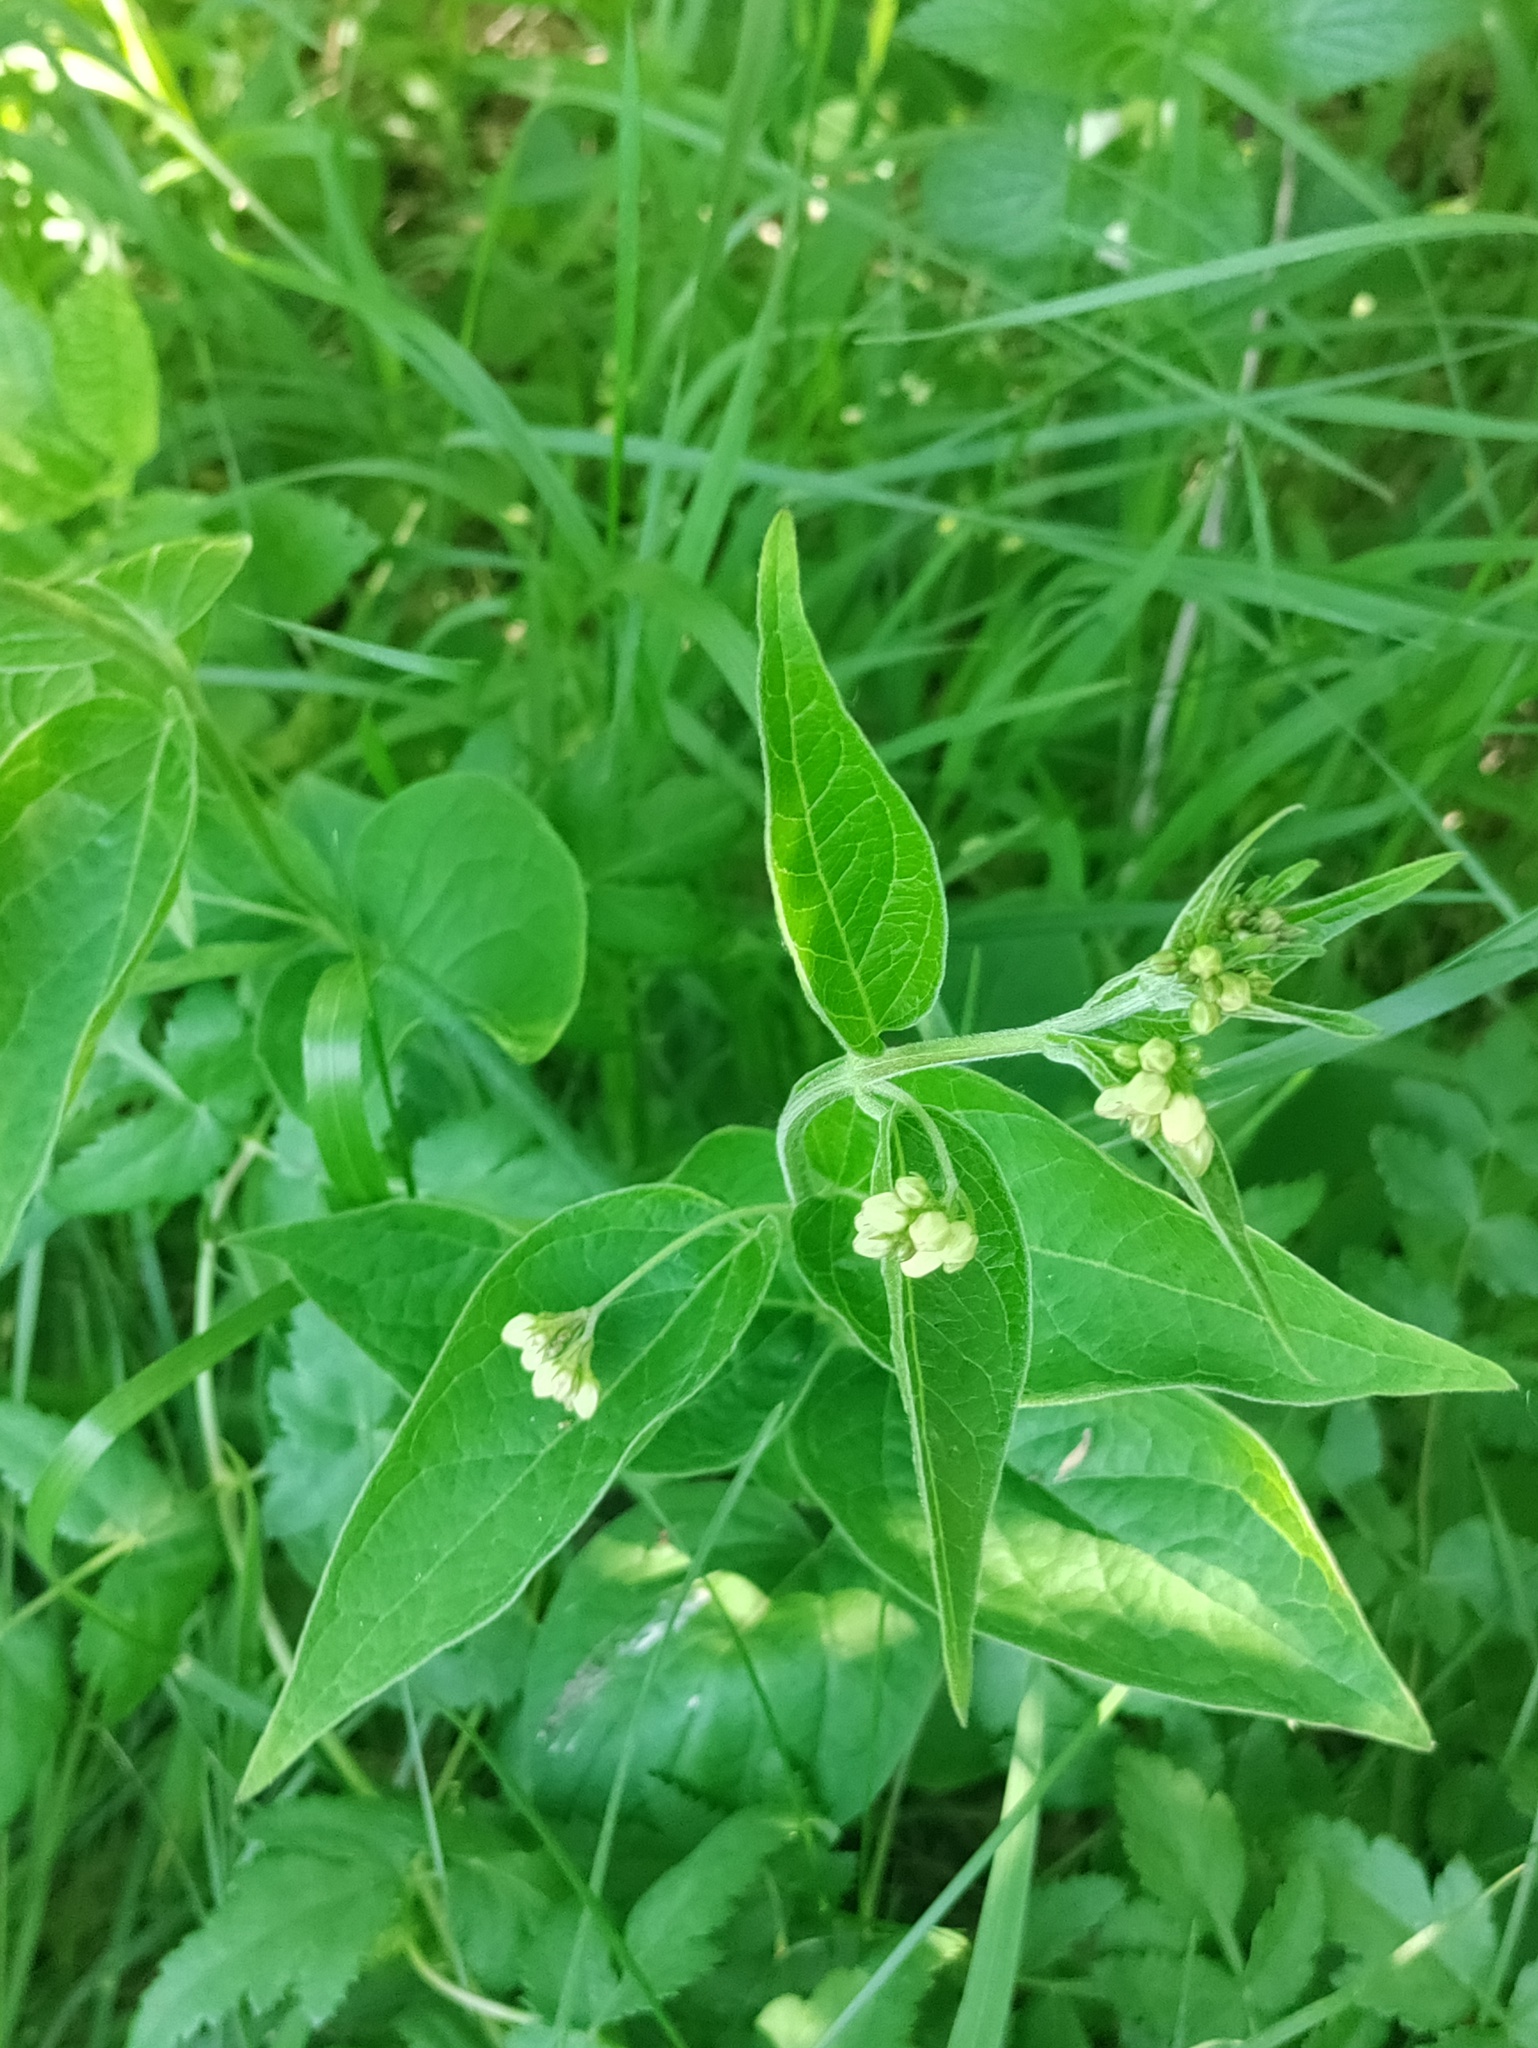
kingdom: Plantae
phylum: Tracheophyta
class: Magnoliopsida
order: Gentianales
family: Apocynaceae
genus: Vincetoxicum
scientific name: Vincetoxicum hirundinaria
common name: White swallowwort
